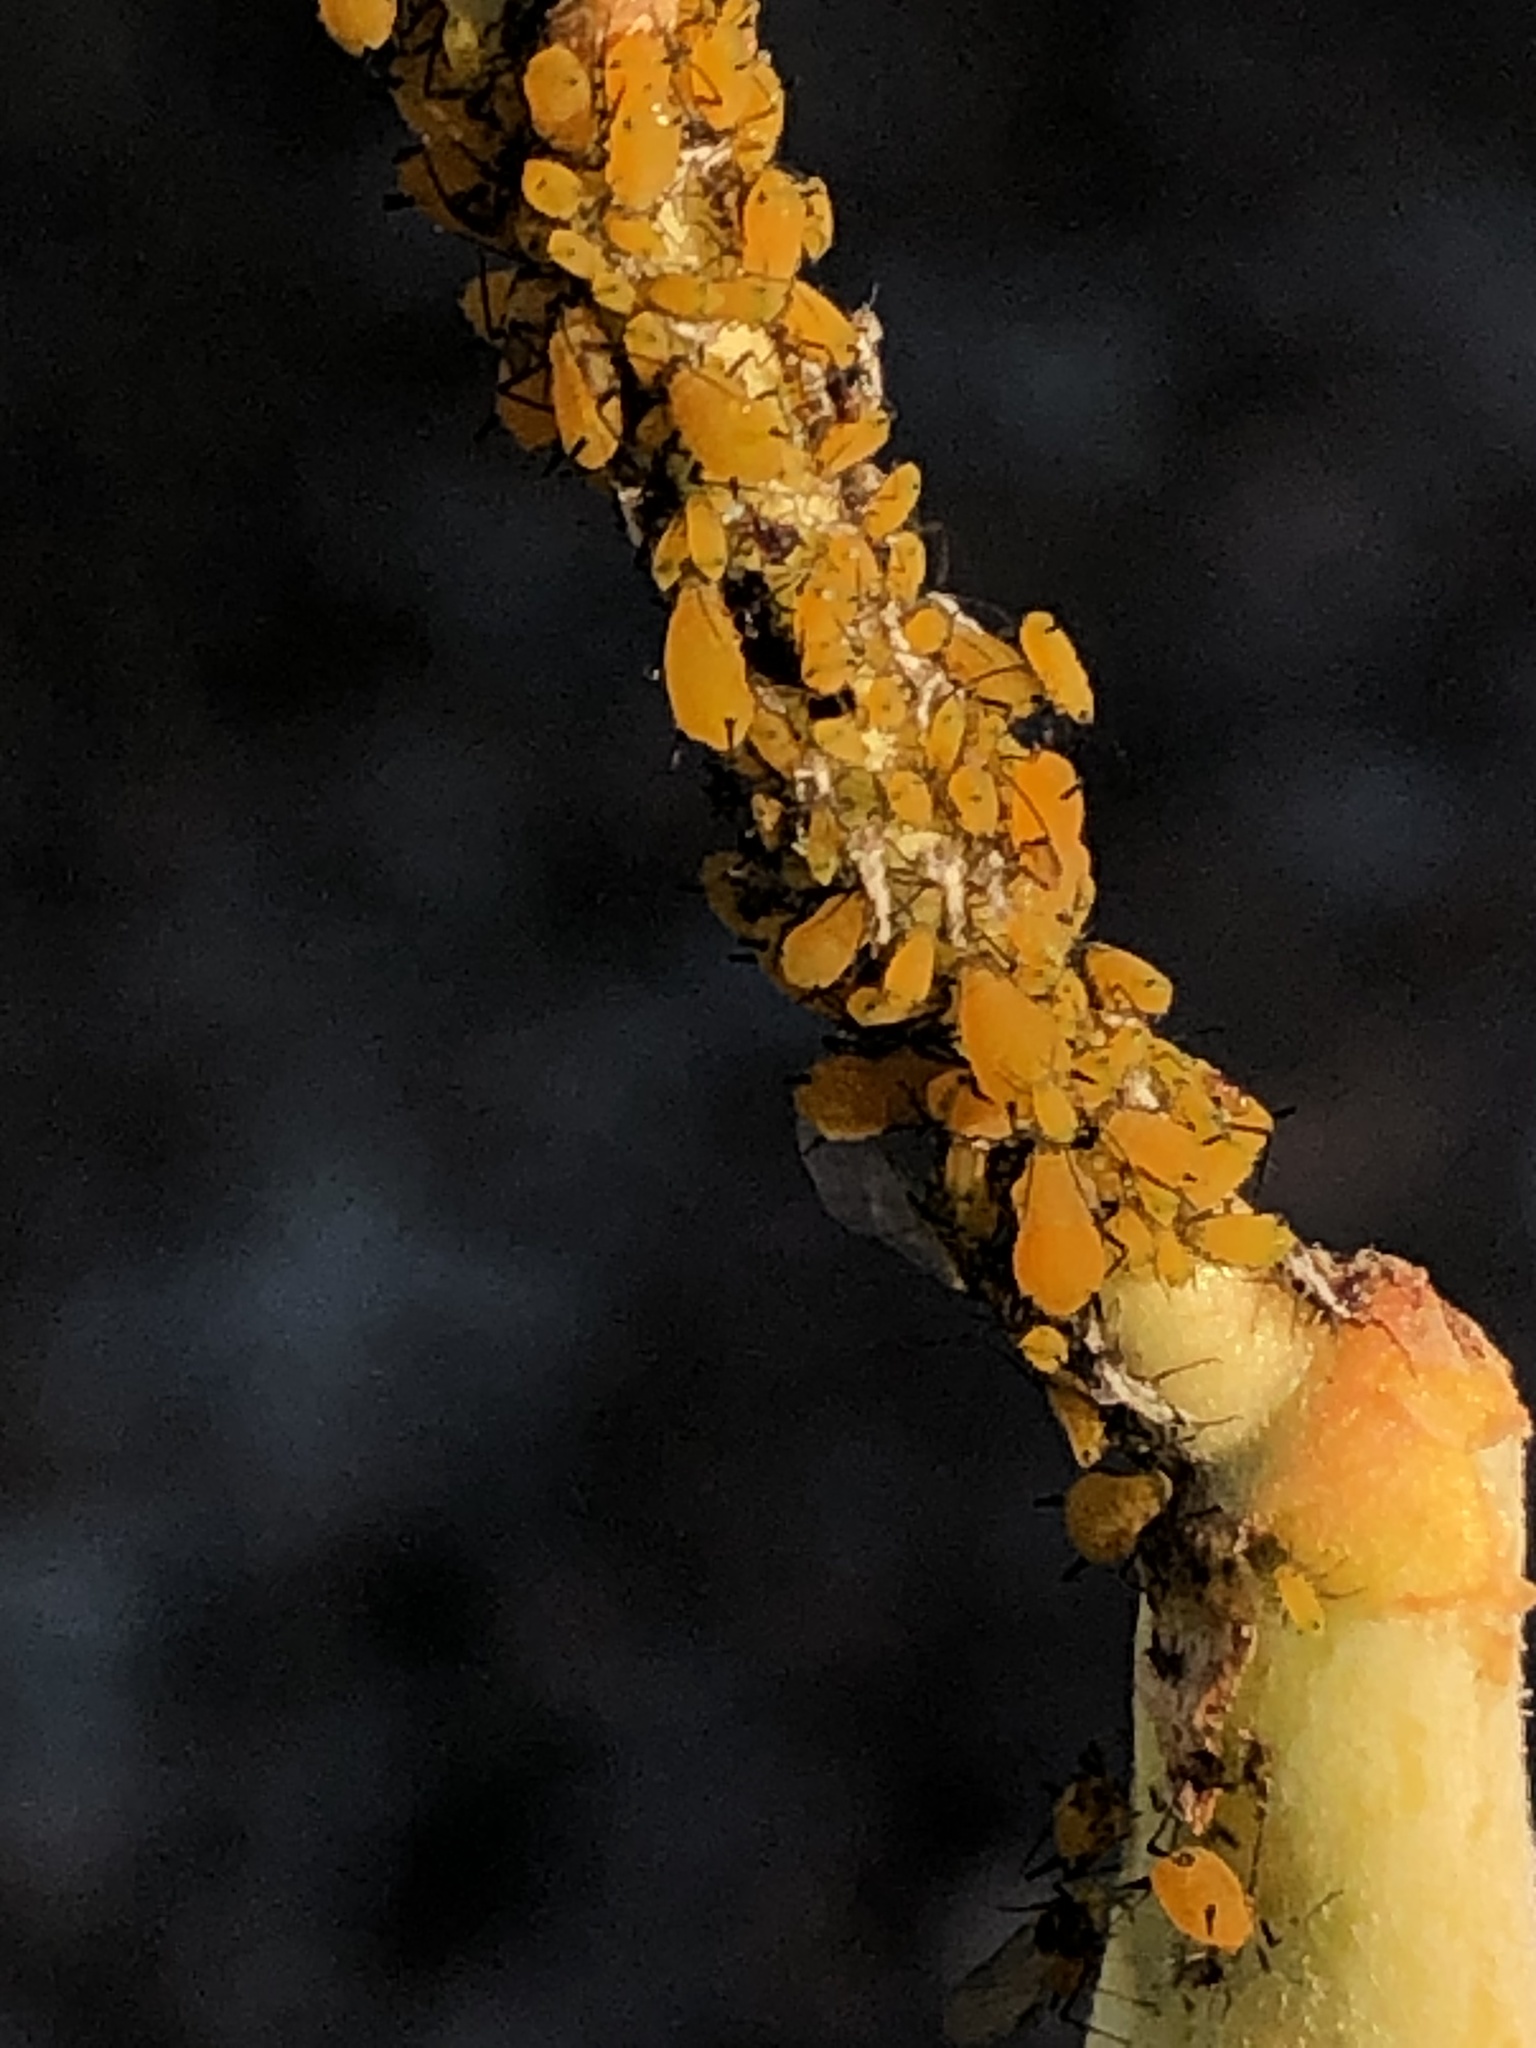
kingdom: Animalia
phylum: Arthropoda
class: Insecta
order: Hemiptera
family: Aphididae
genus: Aphis
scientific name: Aphis nerii
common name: Oleander aphid
